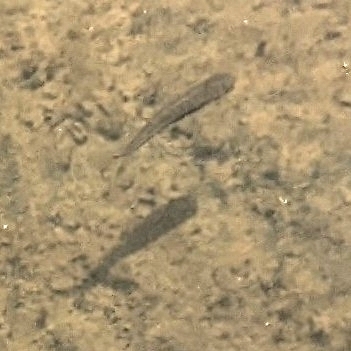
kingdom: Animalia
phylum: Chordata
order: Cyprinodontiformes
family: Poeciliidae
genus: Gambusia
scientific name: Gambusia holbrooki
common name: Eastern mosquitofish
